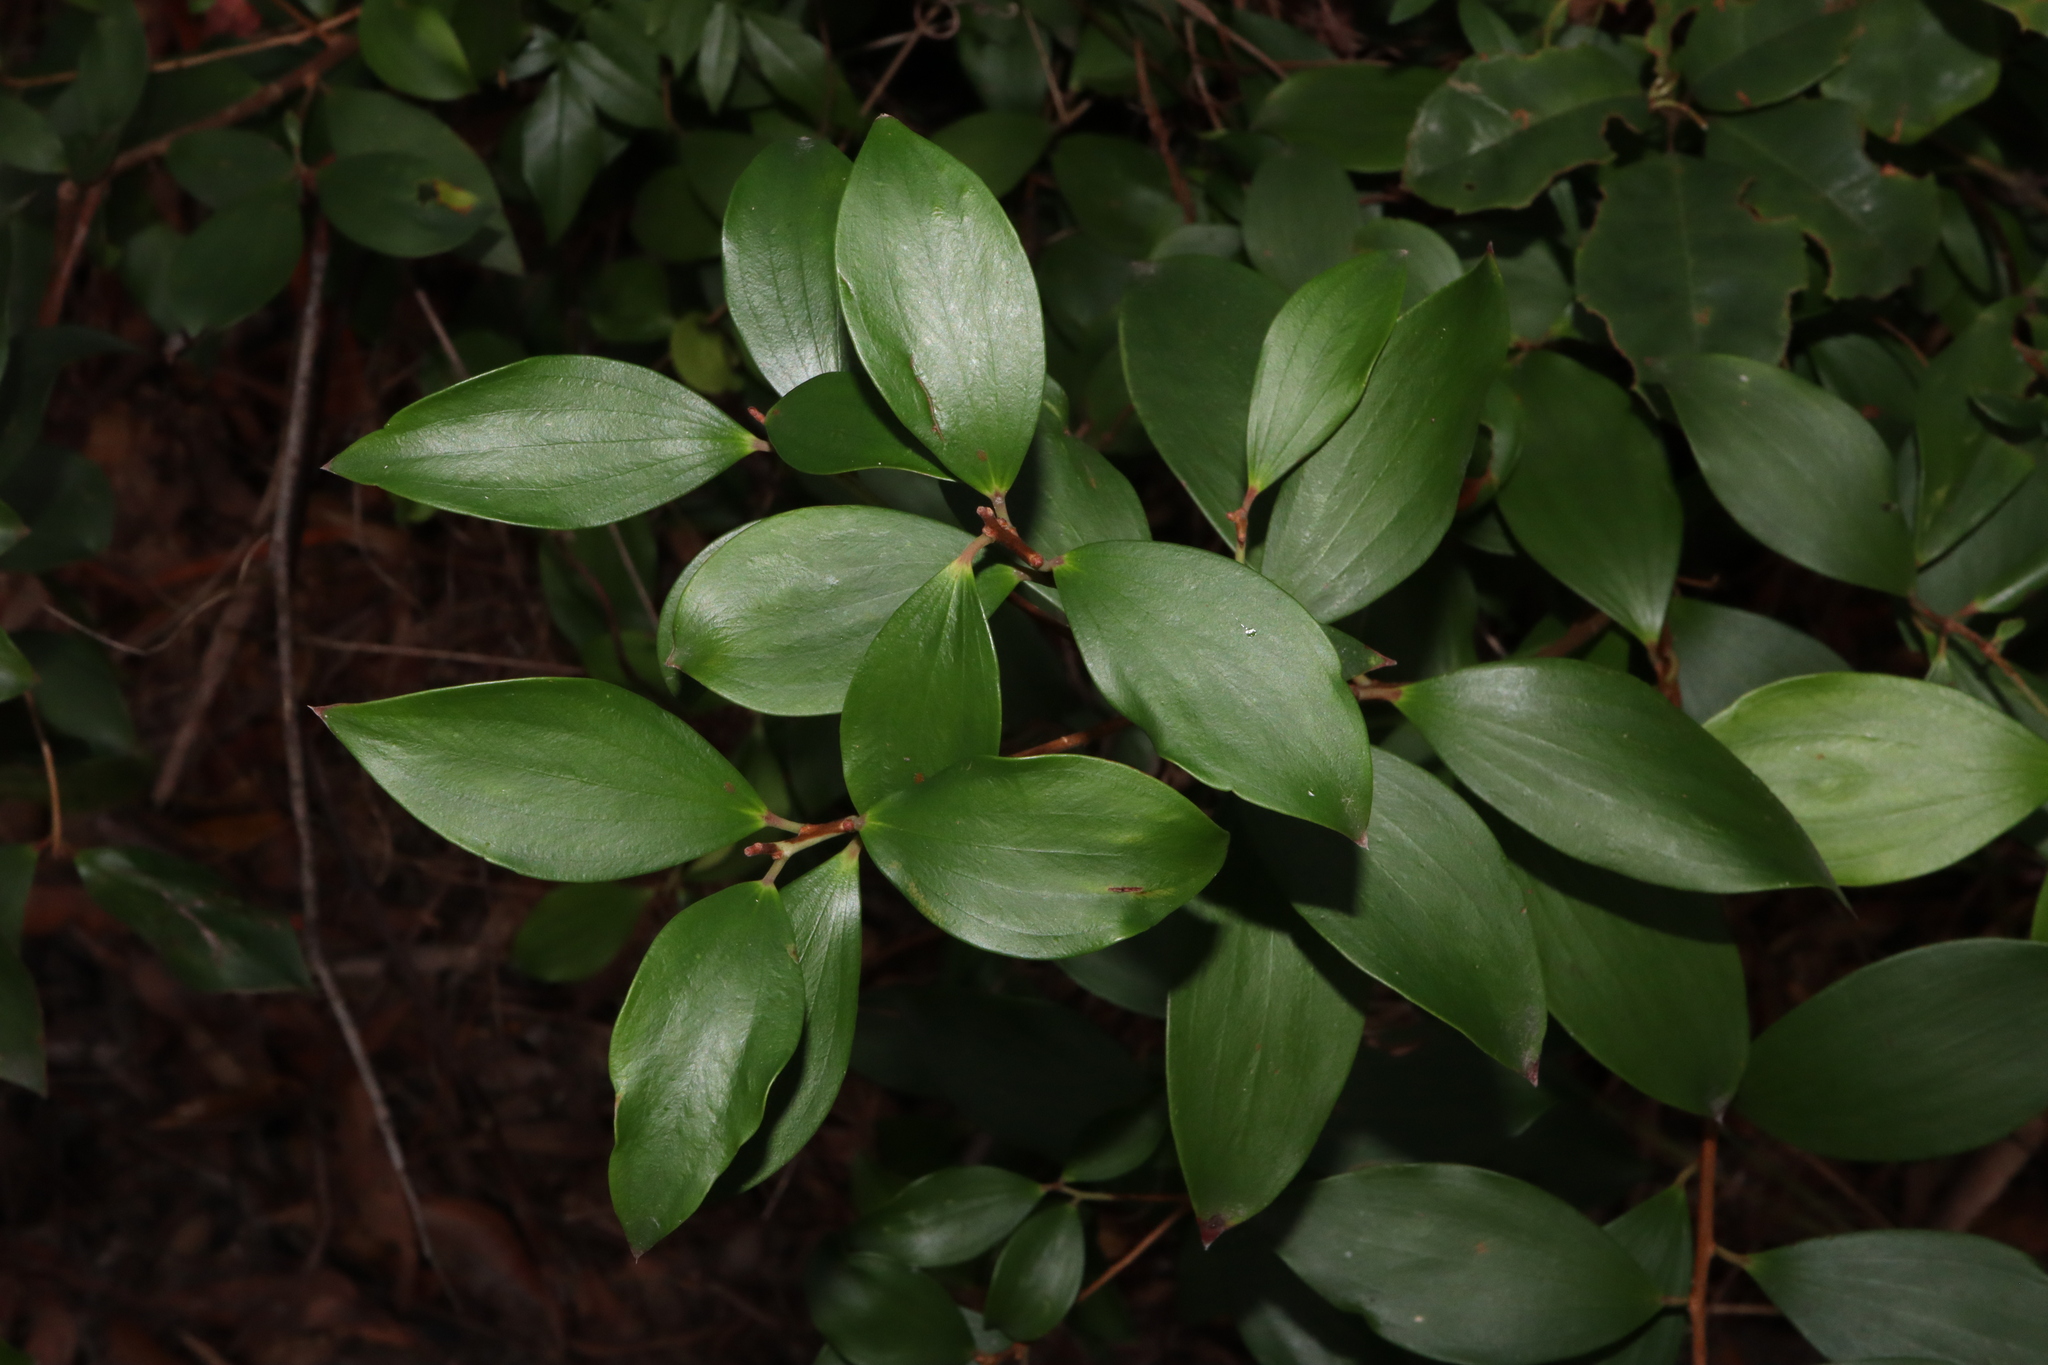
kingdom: Plantae
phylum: Tracheophyta
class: Magnoliopsida
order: Ericales
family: Ericaceae
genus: Trochocarpa
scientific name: Trochocarpa laurina
